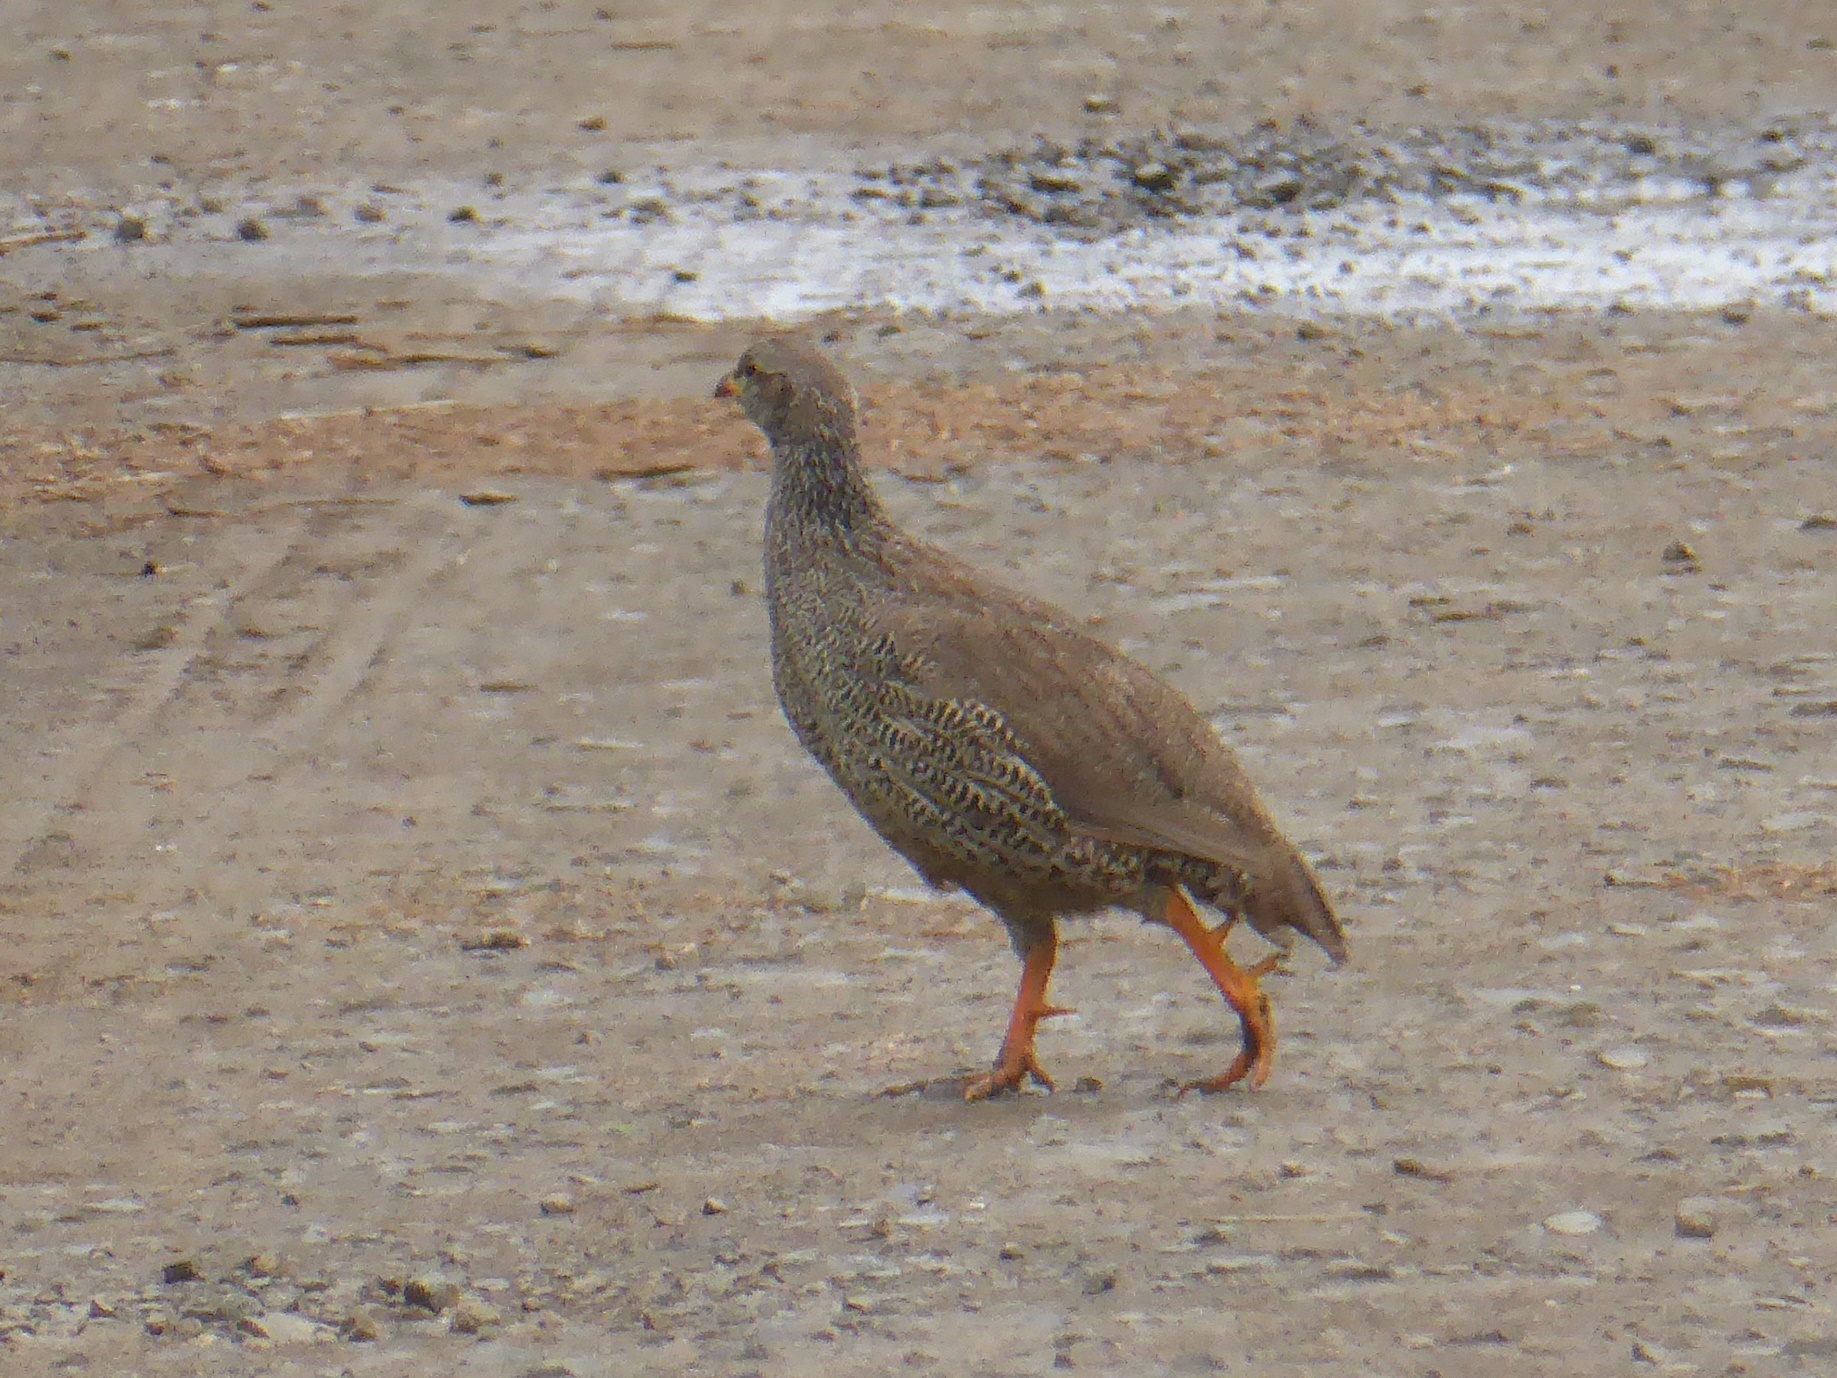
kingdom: Animalia
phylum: Chordata
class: Aves
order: Galliformes
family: Phasianidae
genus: Pternistis
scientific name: Pternistis natalensis
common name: Natal spurfowl
